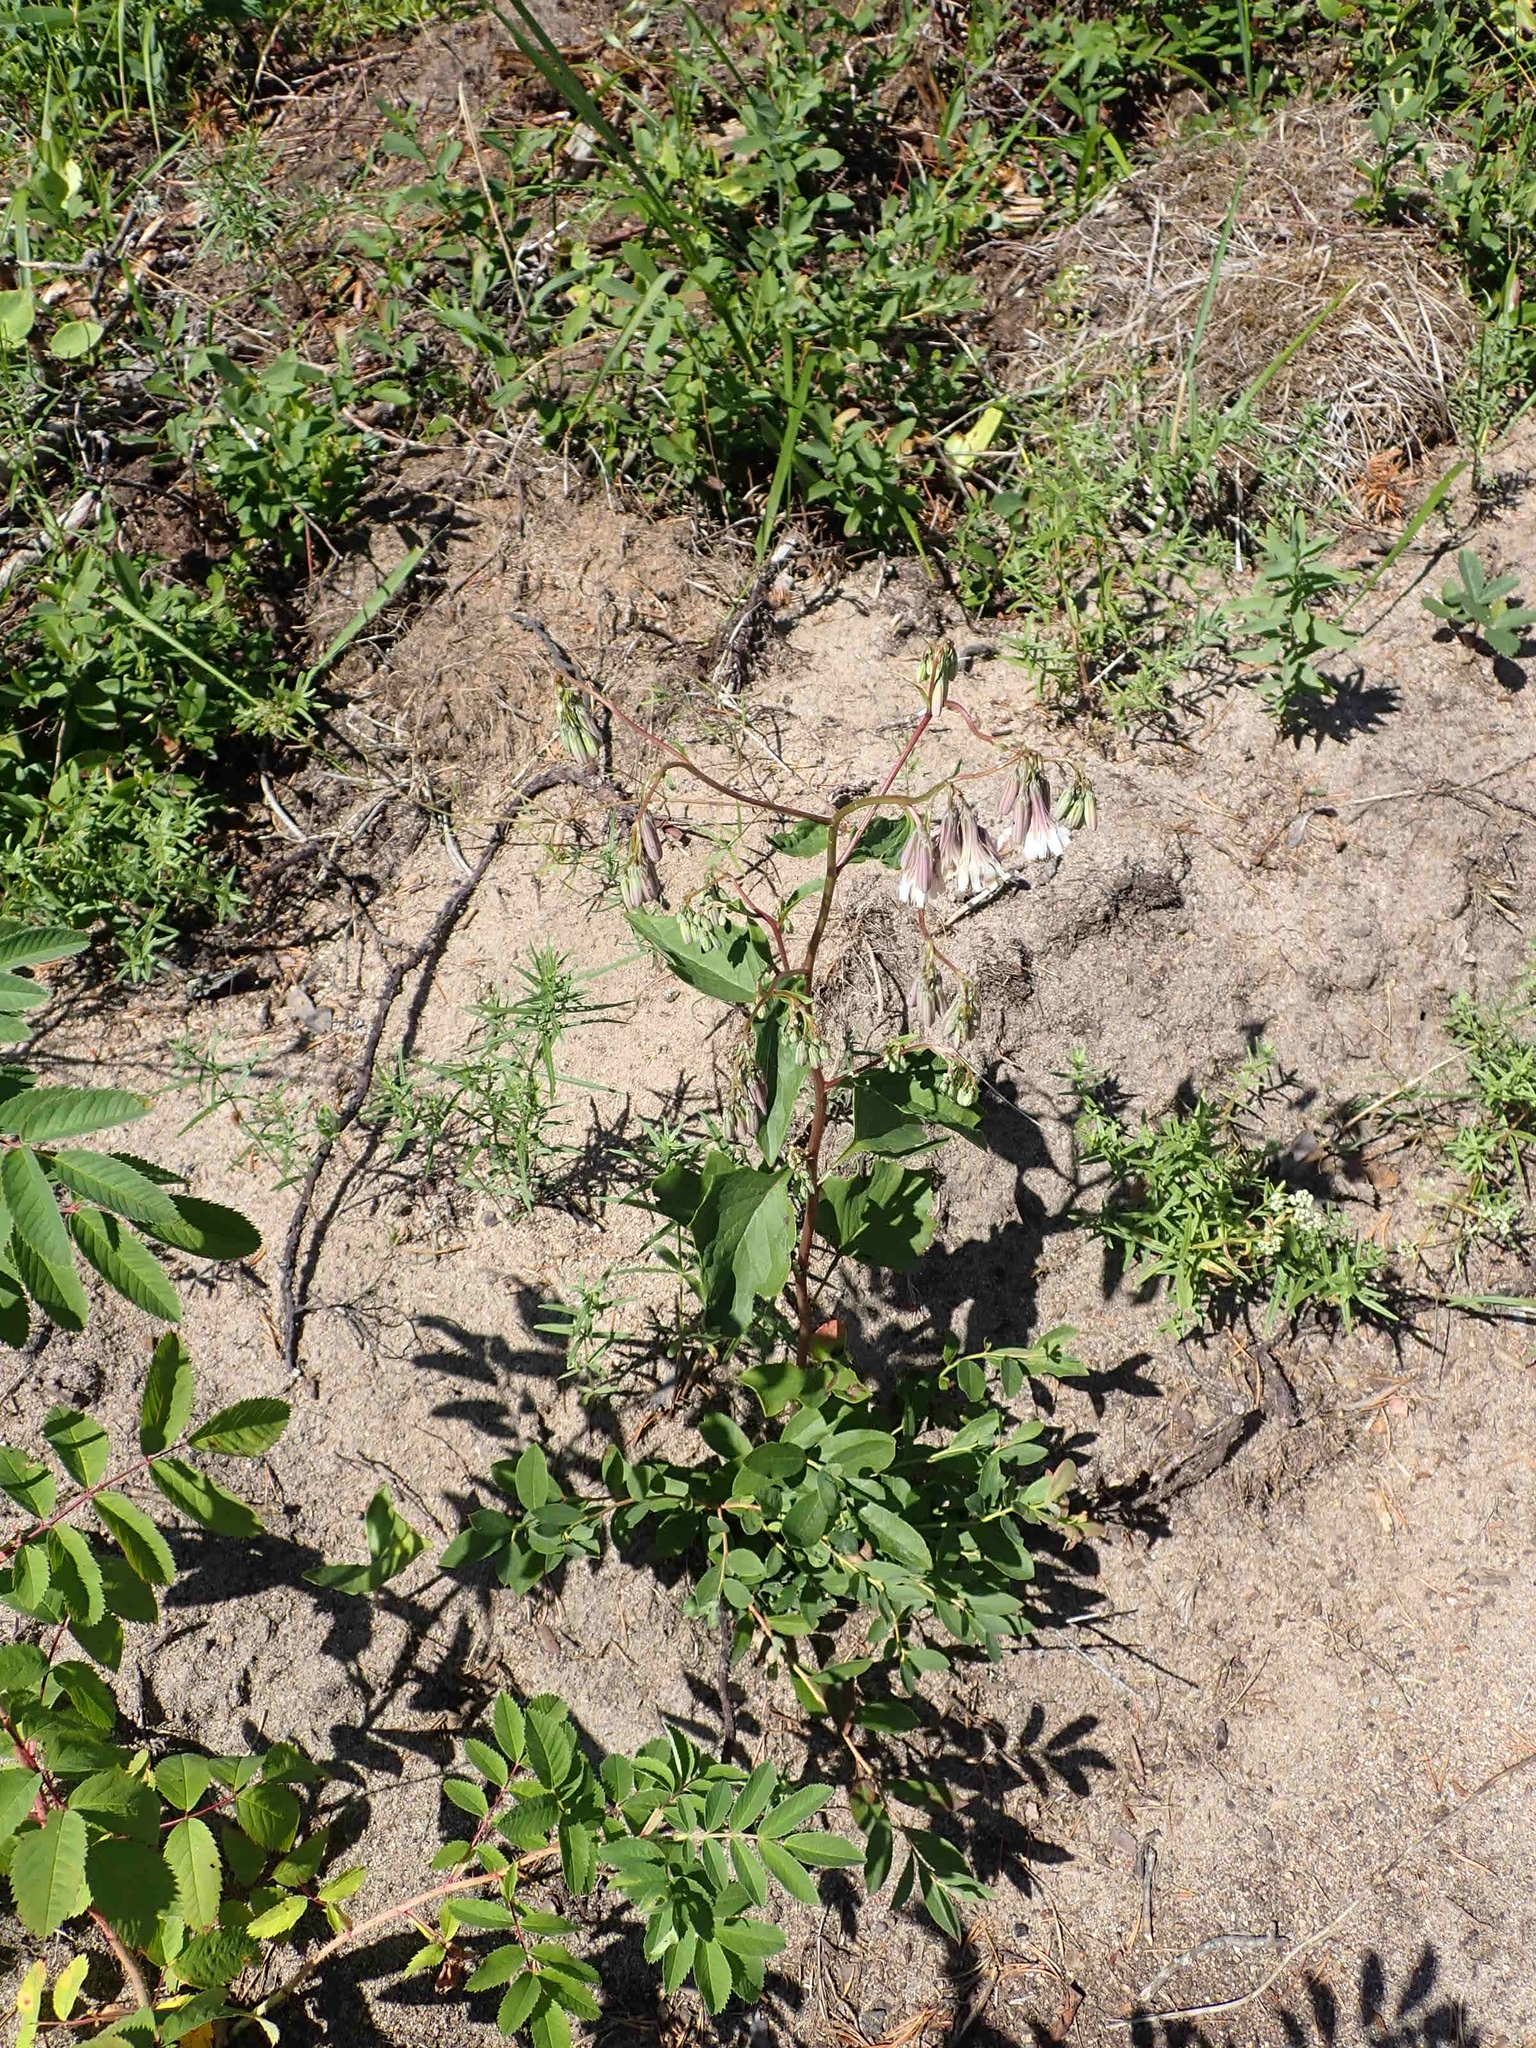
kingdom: Plantae
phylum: Tracheophyta
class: Magnoliopsida
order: Asterales
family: Asteraceae
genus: Nabalus
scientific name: Nabalus albus
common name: White rattlesnakeroot
